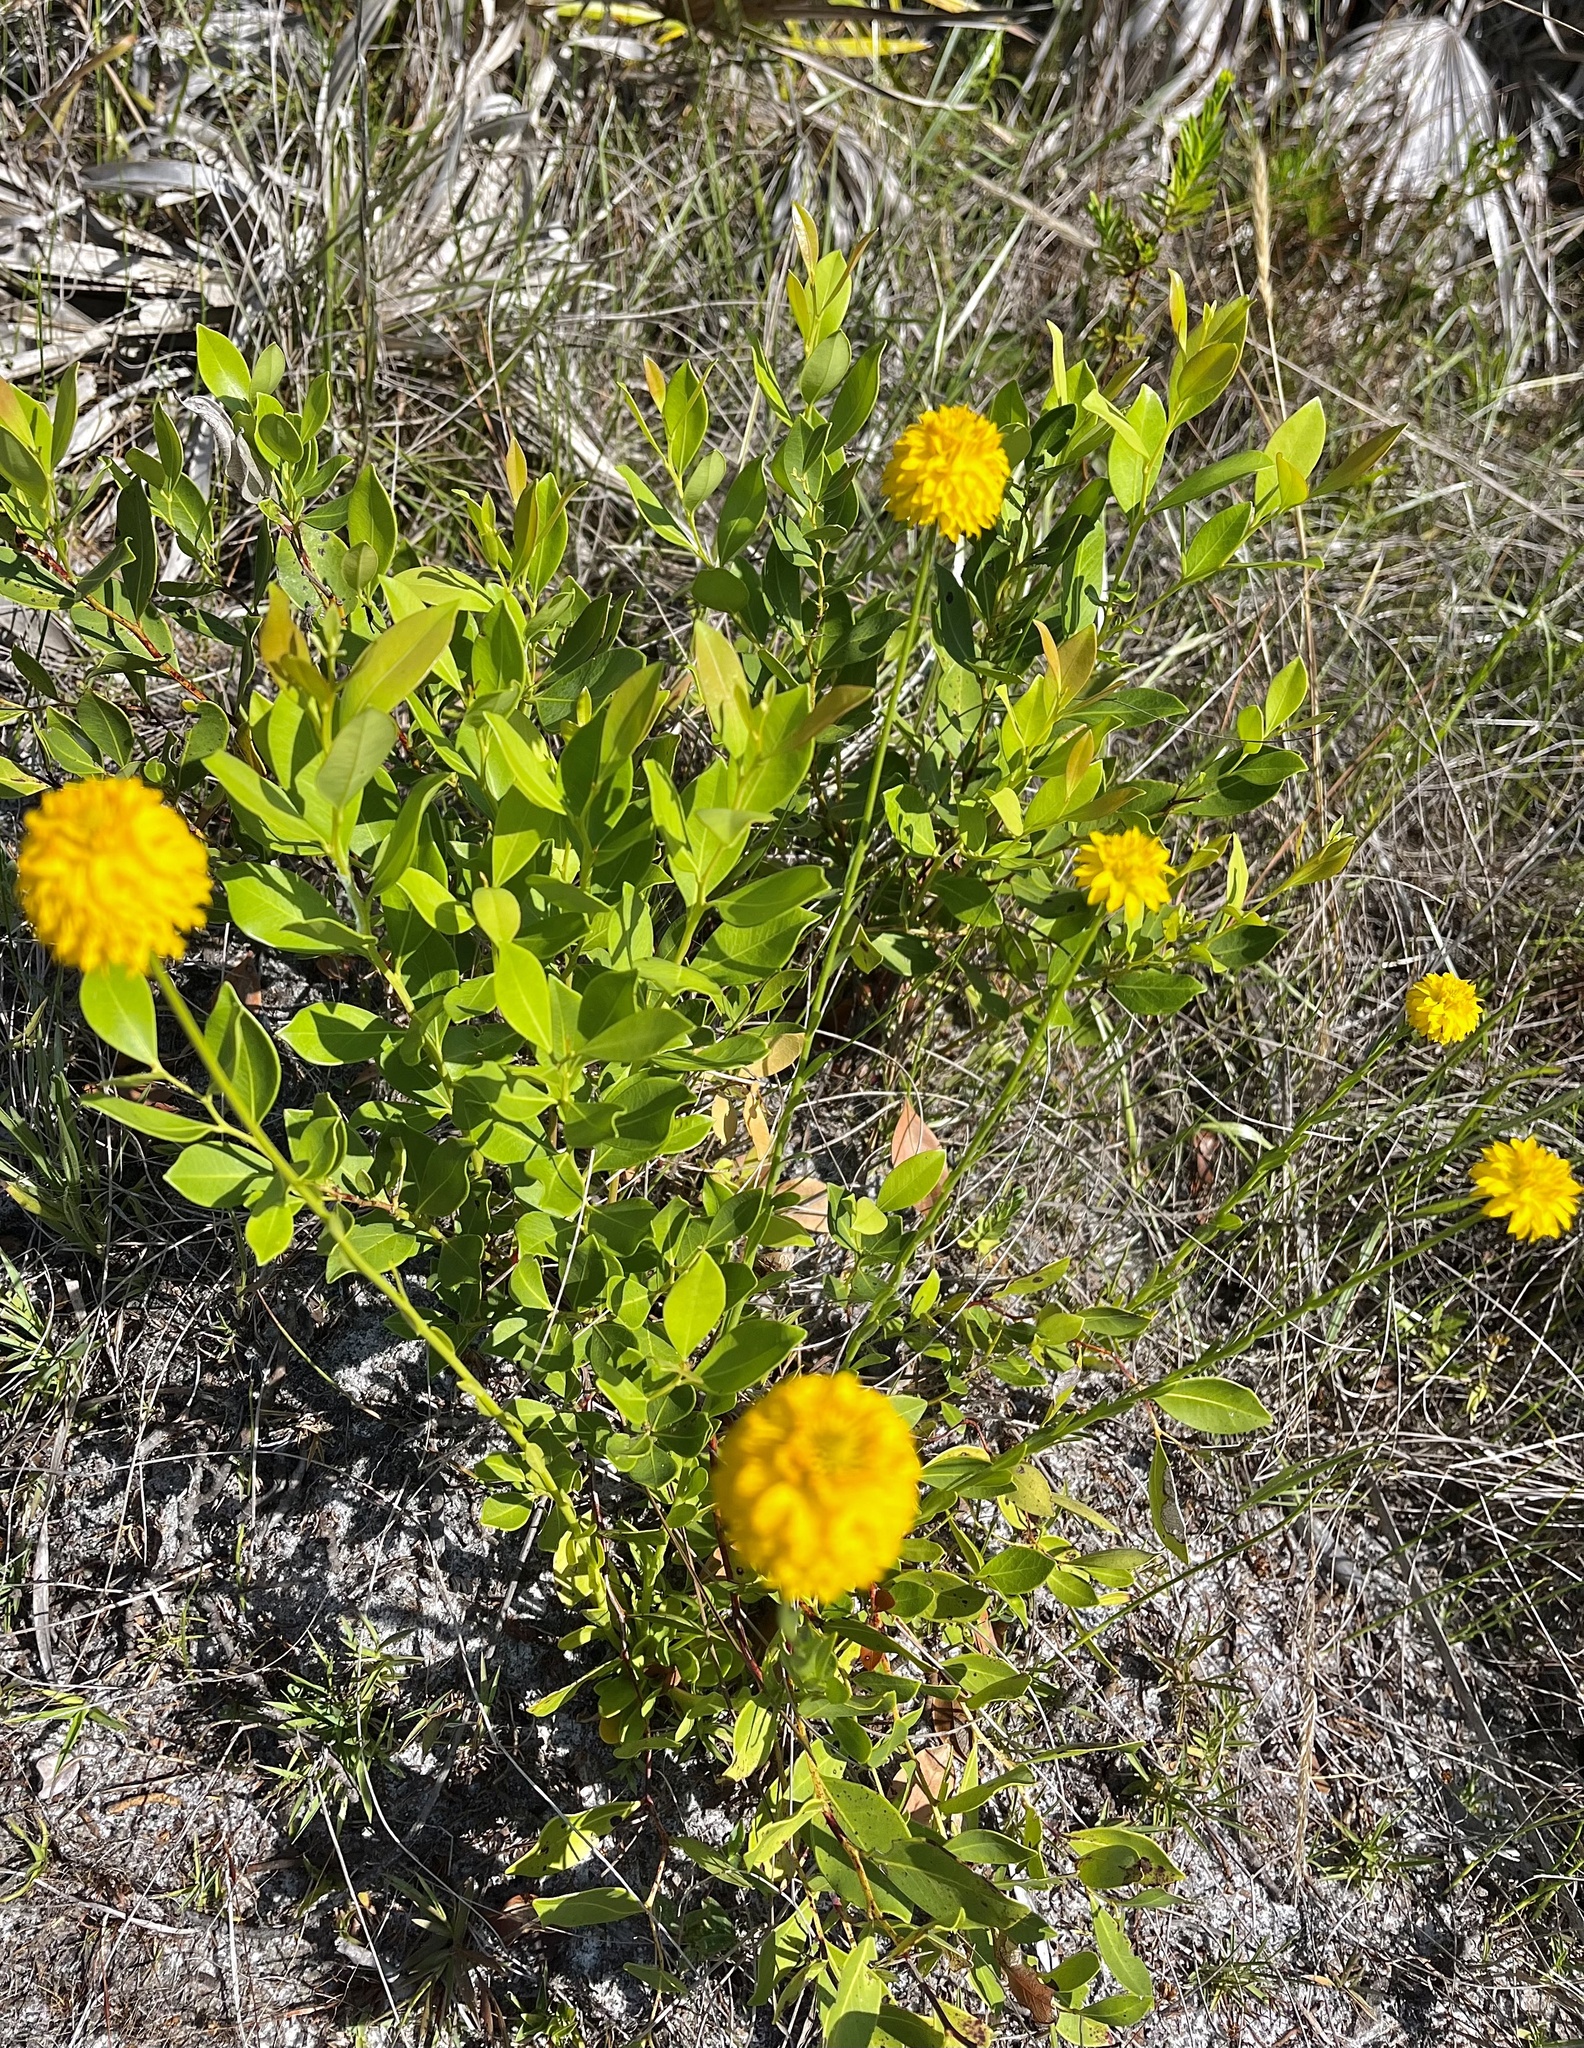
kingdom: Plantae
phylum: Tracheophyta
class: Magnoliopsida
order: Fabales
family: Polygalaceae
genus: Polygala
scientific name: Polygala rugelii
